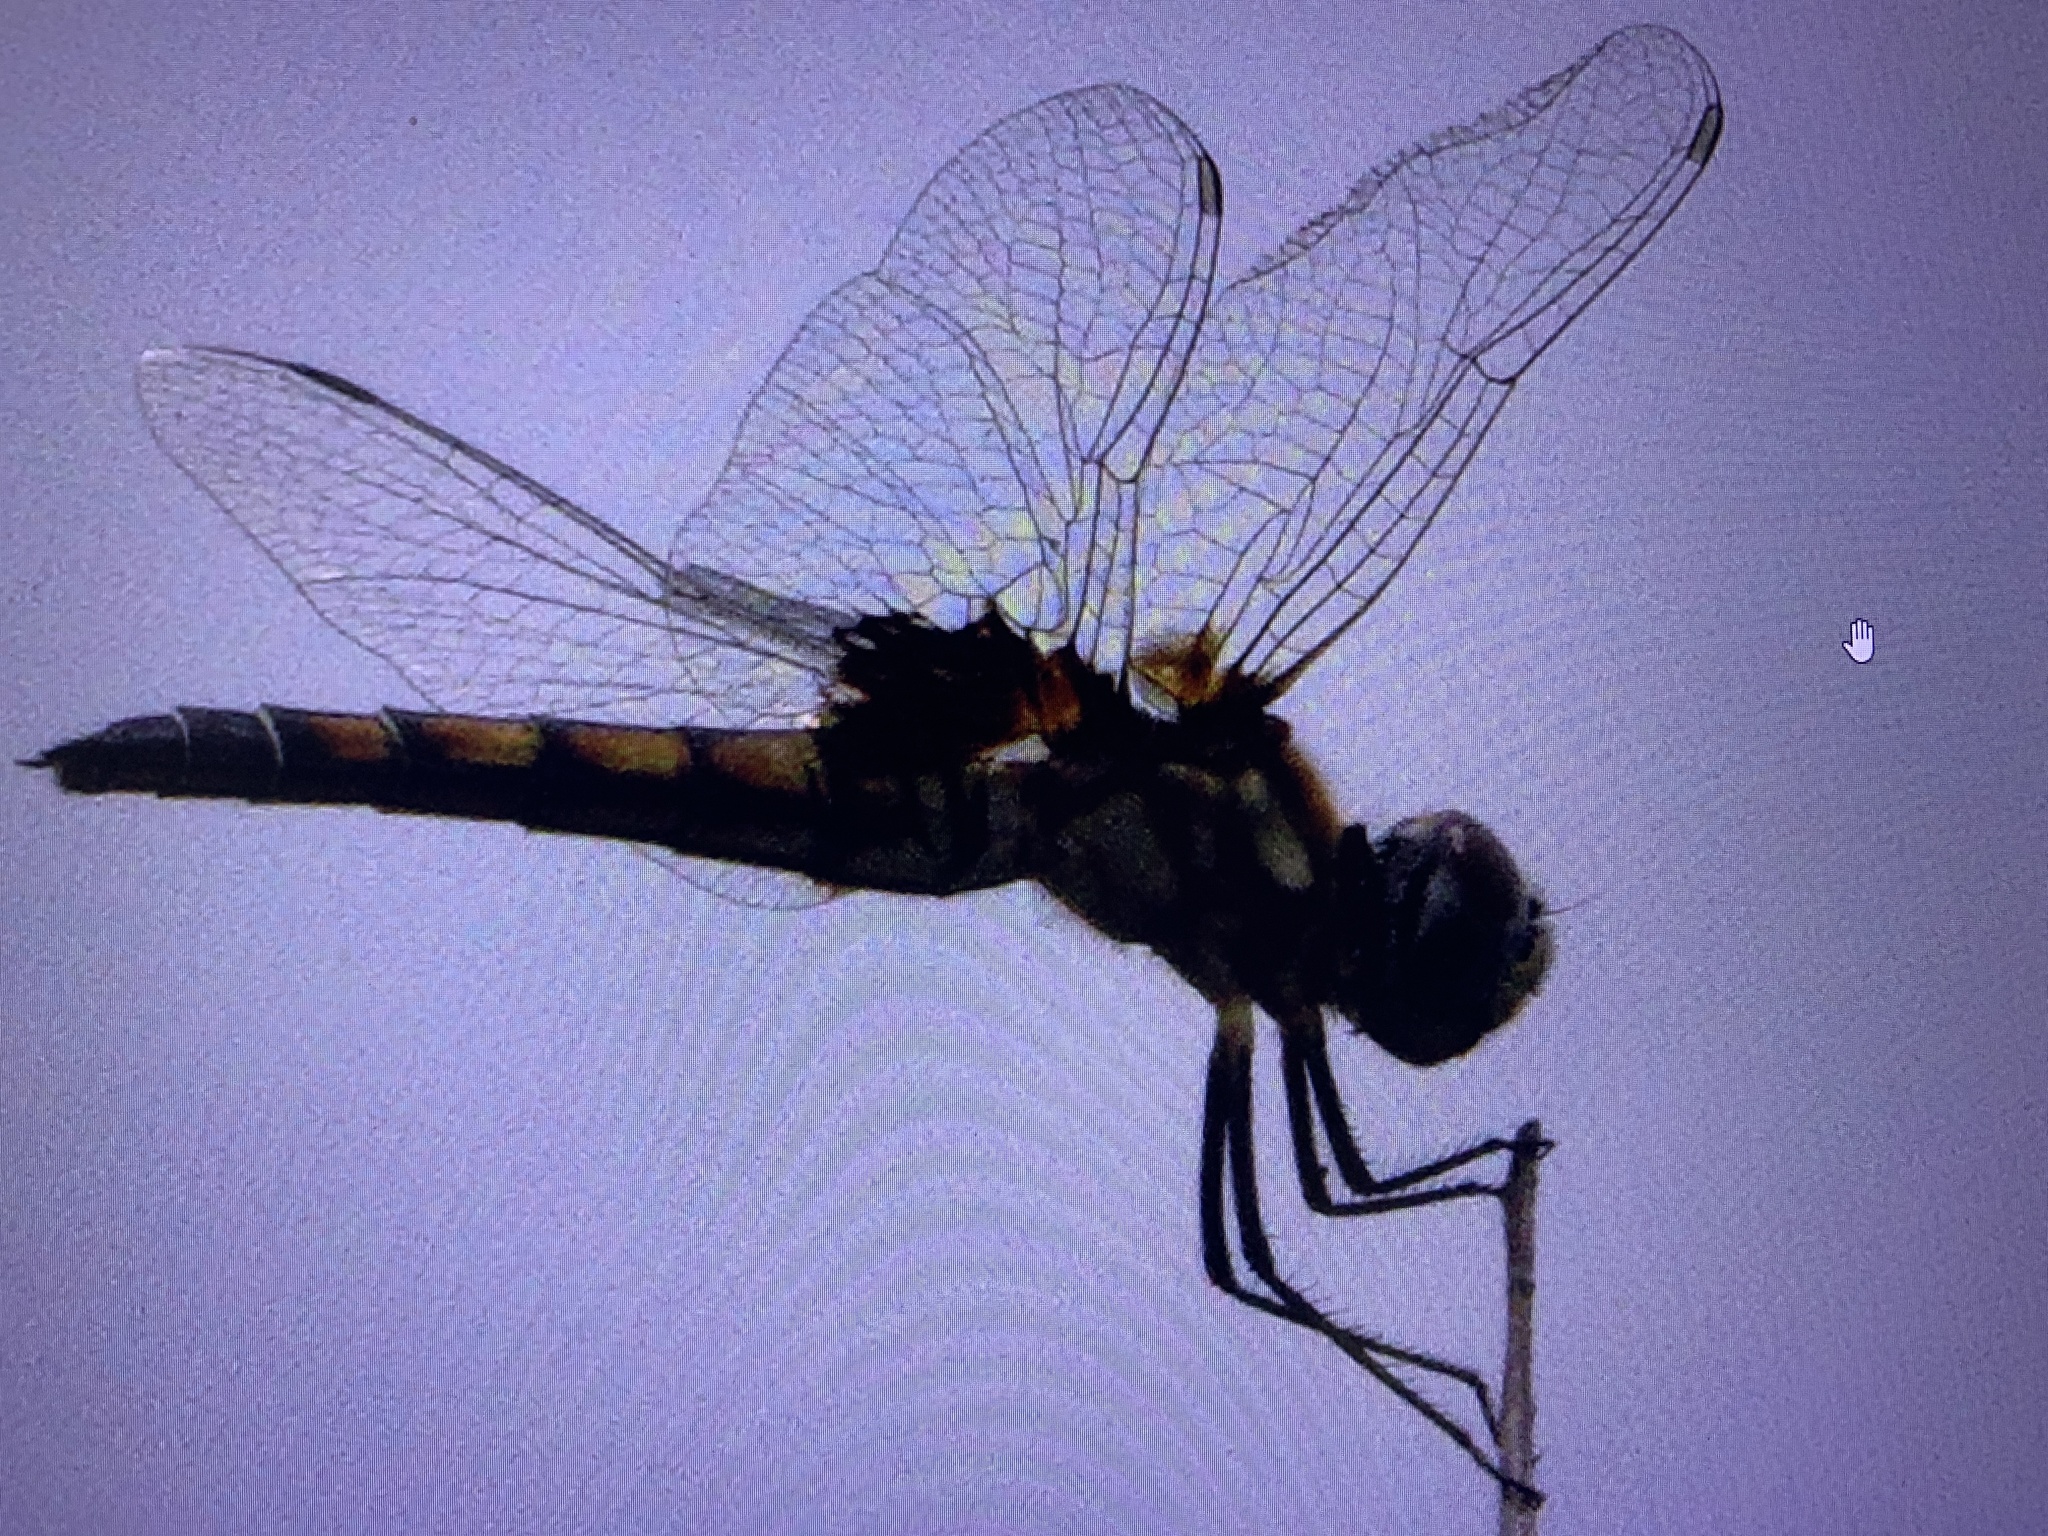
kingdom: Animalia
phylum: Arthropoda
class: Insecta
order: Odonata
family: Libellulidae
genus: Macrodiplax
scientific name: Macrodiplax balteata
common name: Marl pennant
